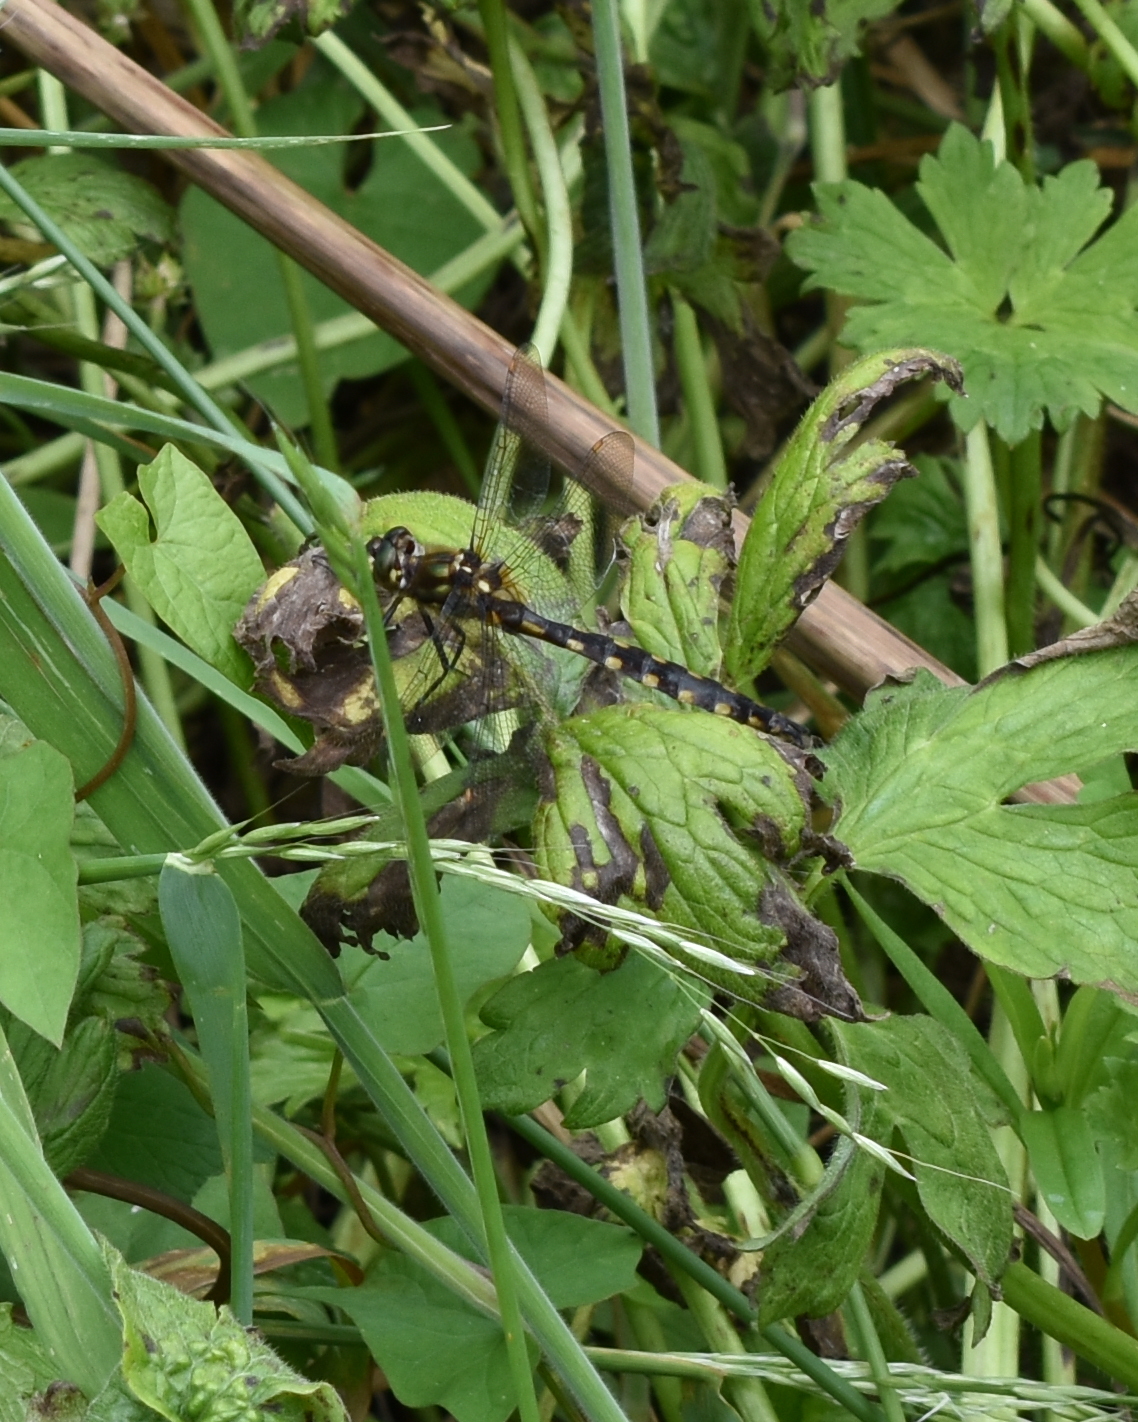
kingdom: Animalia
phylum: Arthropoda
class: Insecta
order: Odonata
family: Corduliidae
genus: Procordulia
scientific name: Procordulia grayi
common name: Yellow spotted dragonfly
